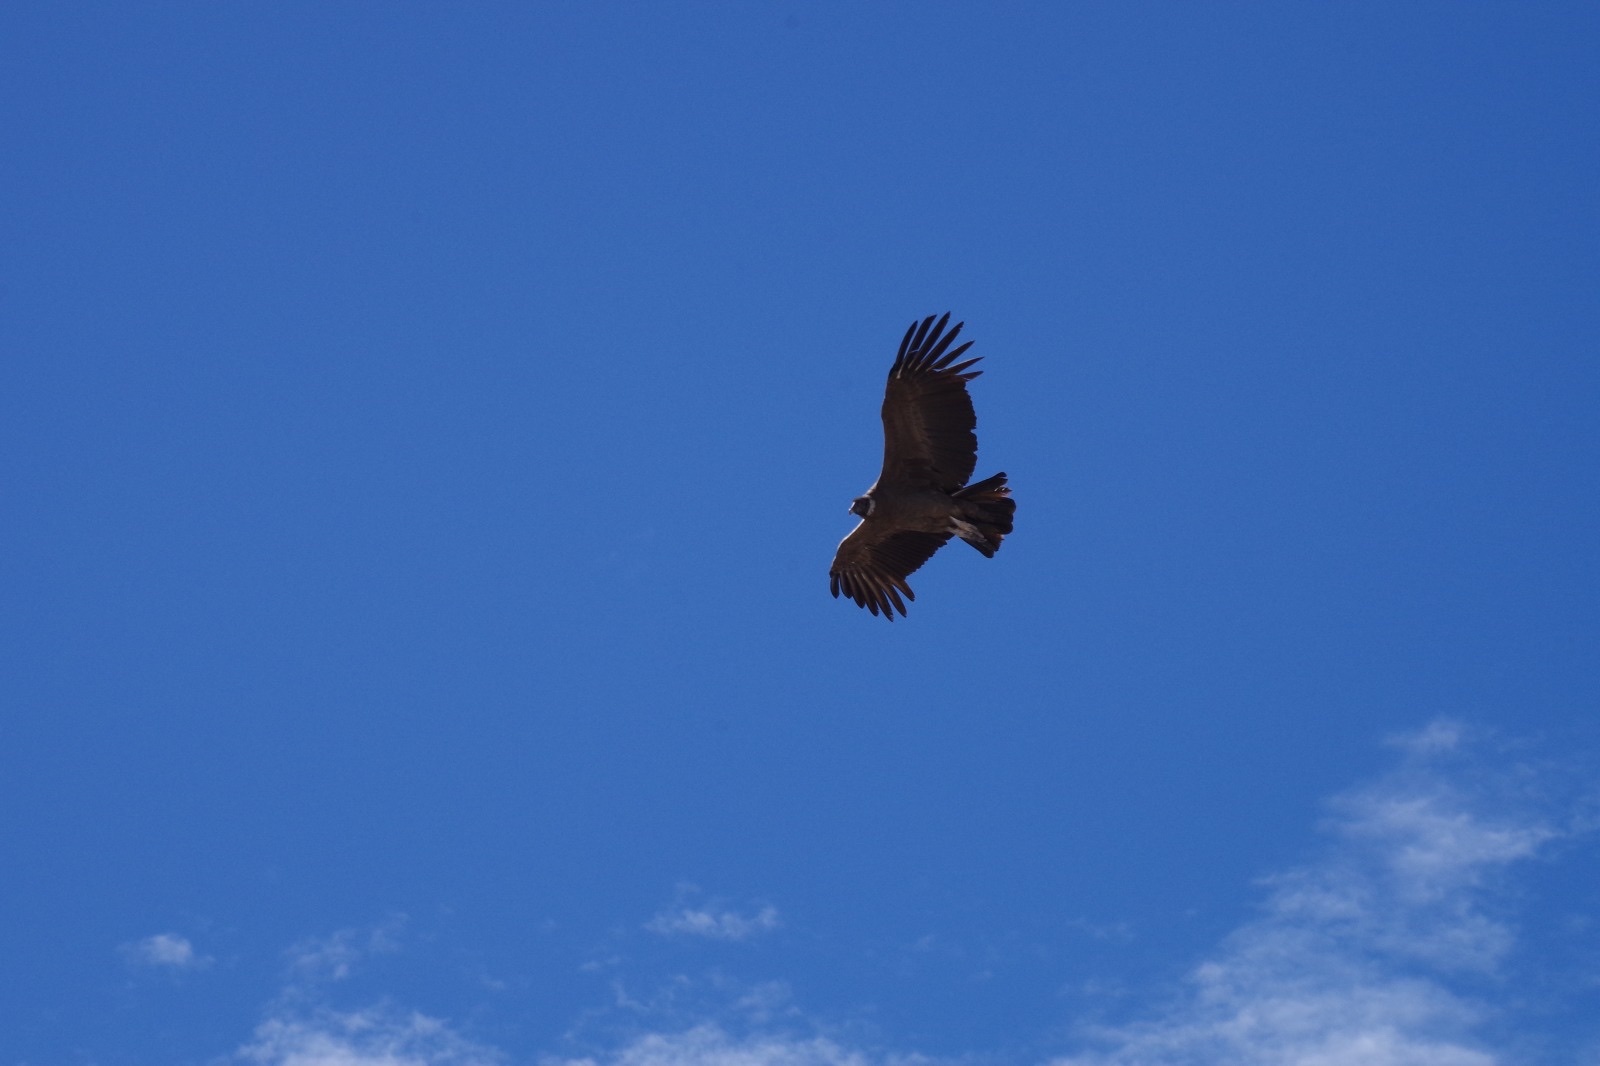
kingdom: Animalia
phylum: Chordata
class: Aves
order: Accipitriformes
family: Cathartidae
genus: Vultur
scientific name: Vultur gryphus
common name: Andean condor
